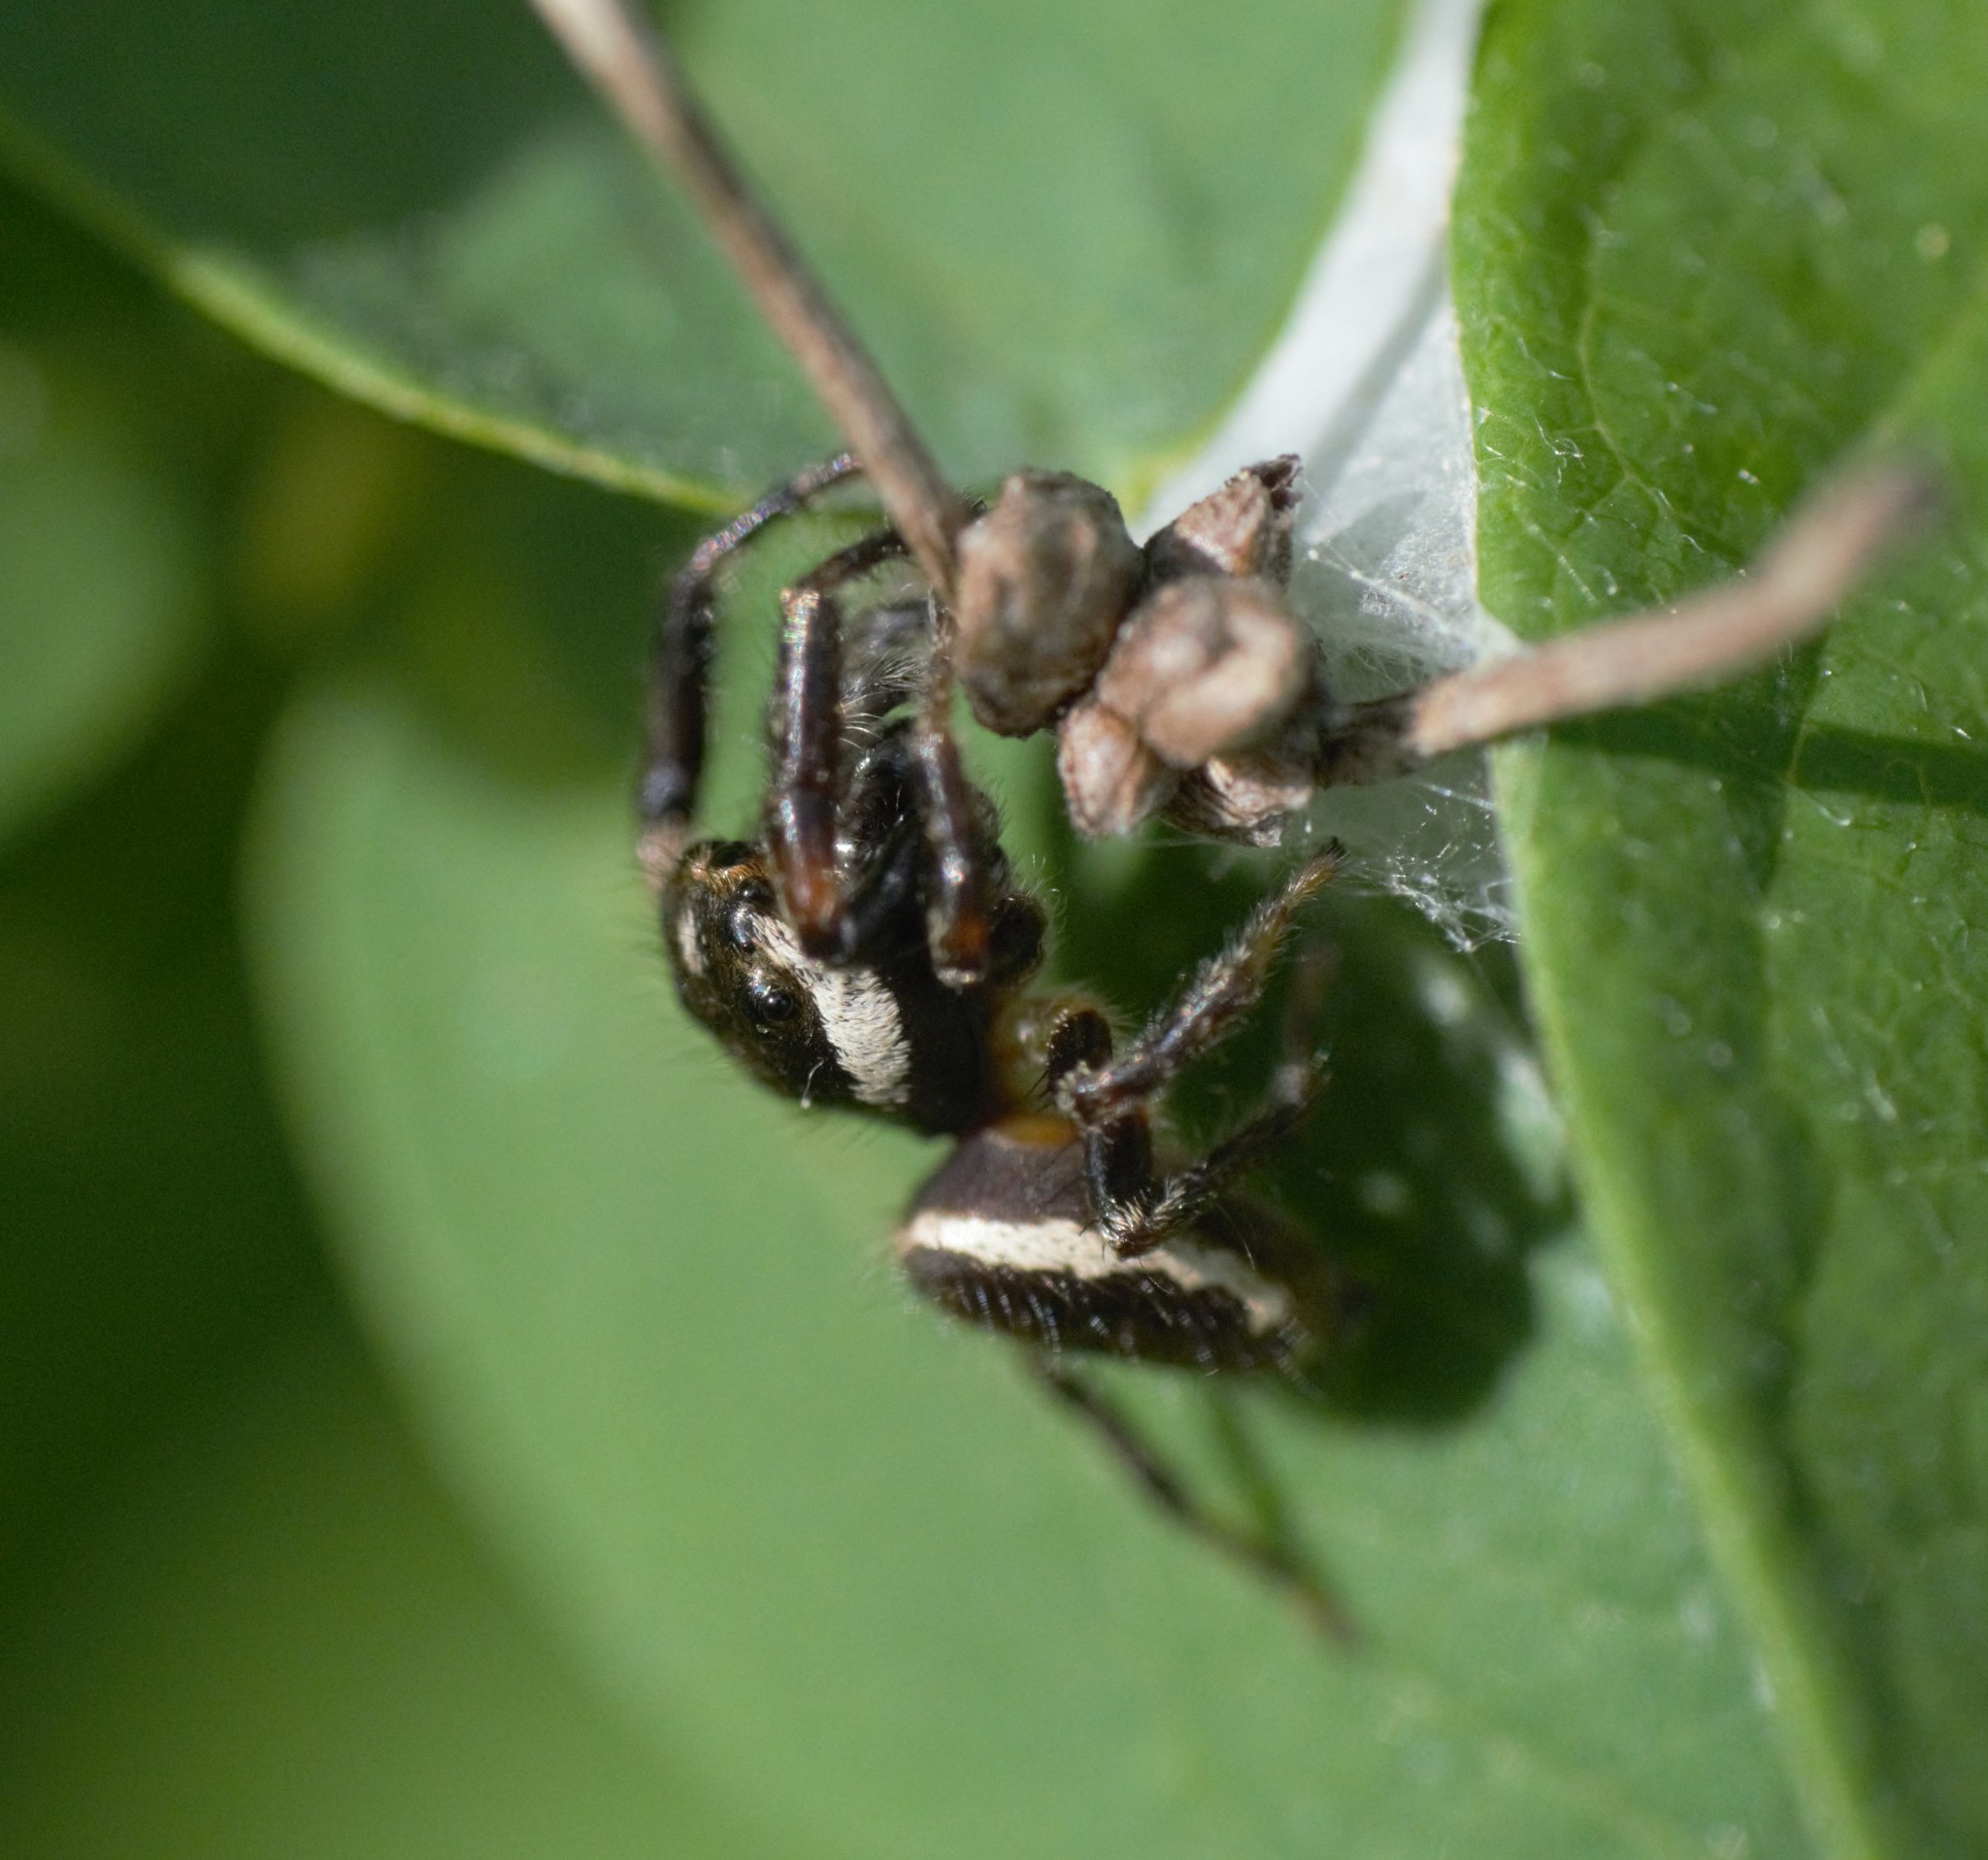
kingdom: Animalia
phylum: Arthropoda
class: Arachnida
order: Araneae
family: Salticidae
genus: Eris
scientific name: Eris militaris
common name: Bronze jumper
